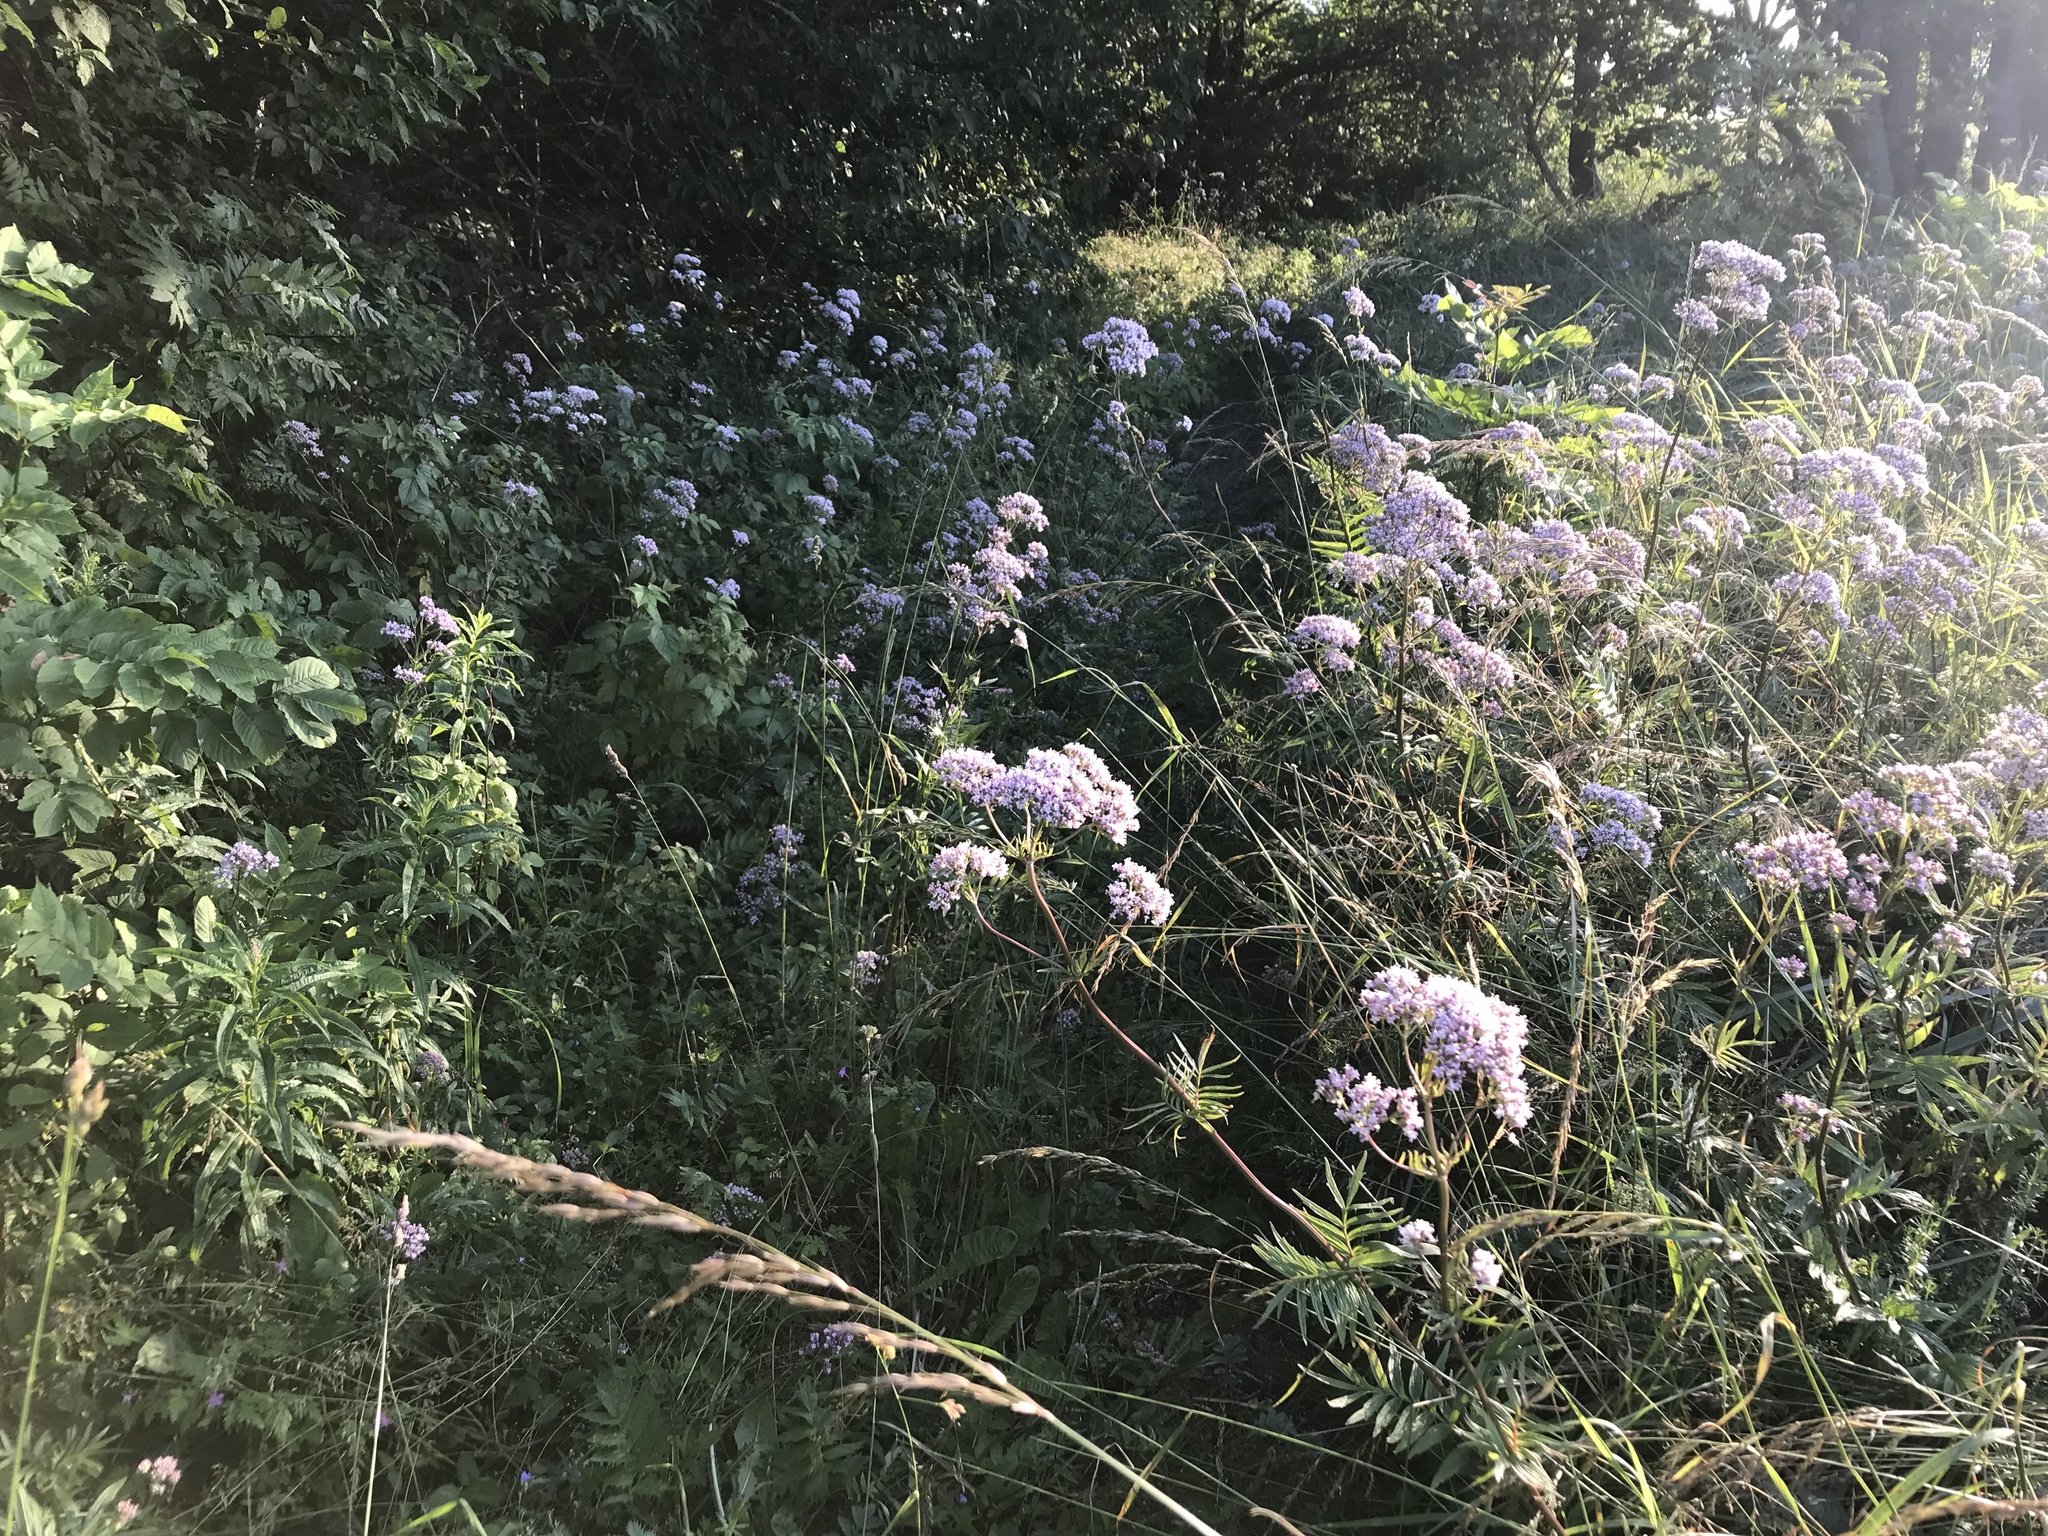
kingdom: Plantae
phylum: Tracheophyta
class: Magnoliopsida
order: Dipsacales
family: Caprifoliaceae
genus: Valeriana
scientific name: Valeriana officinalis
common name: Common valerian
